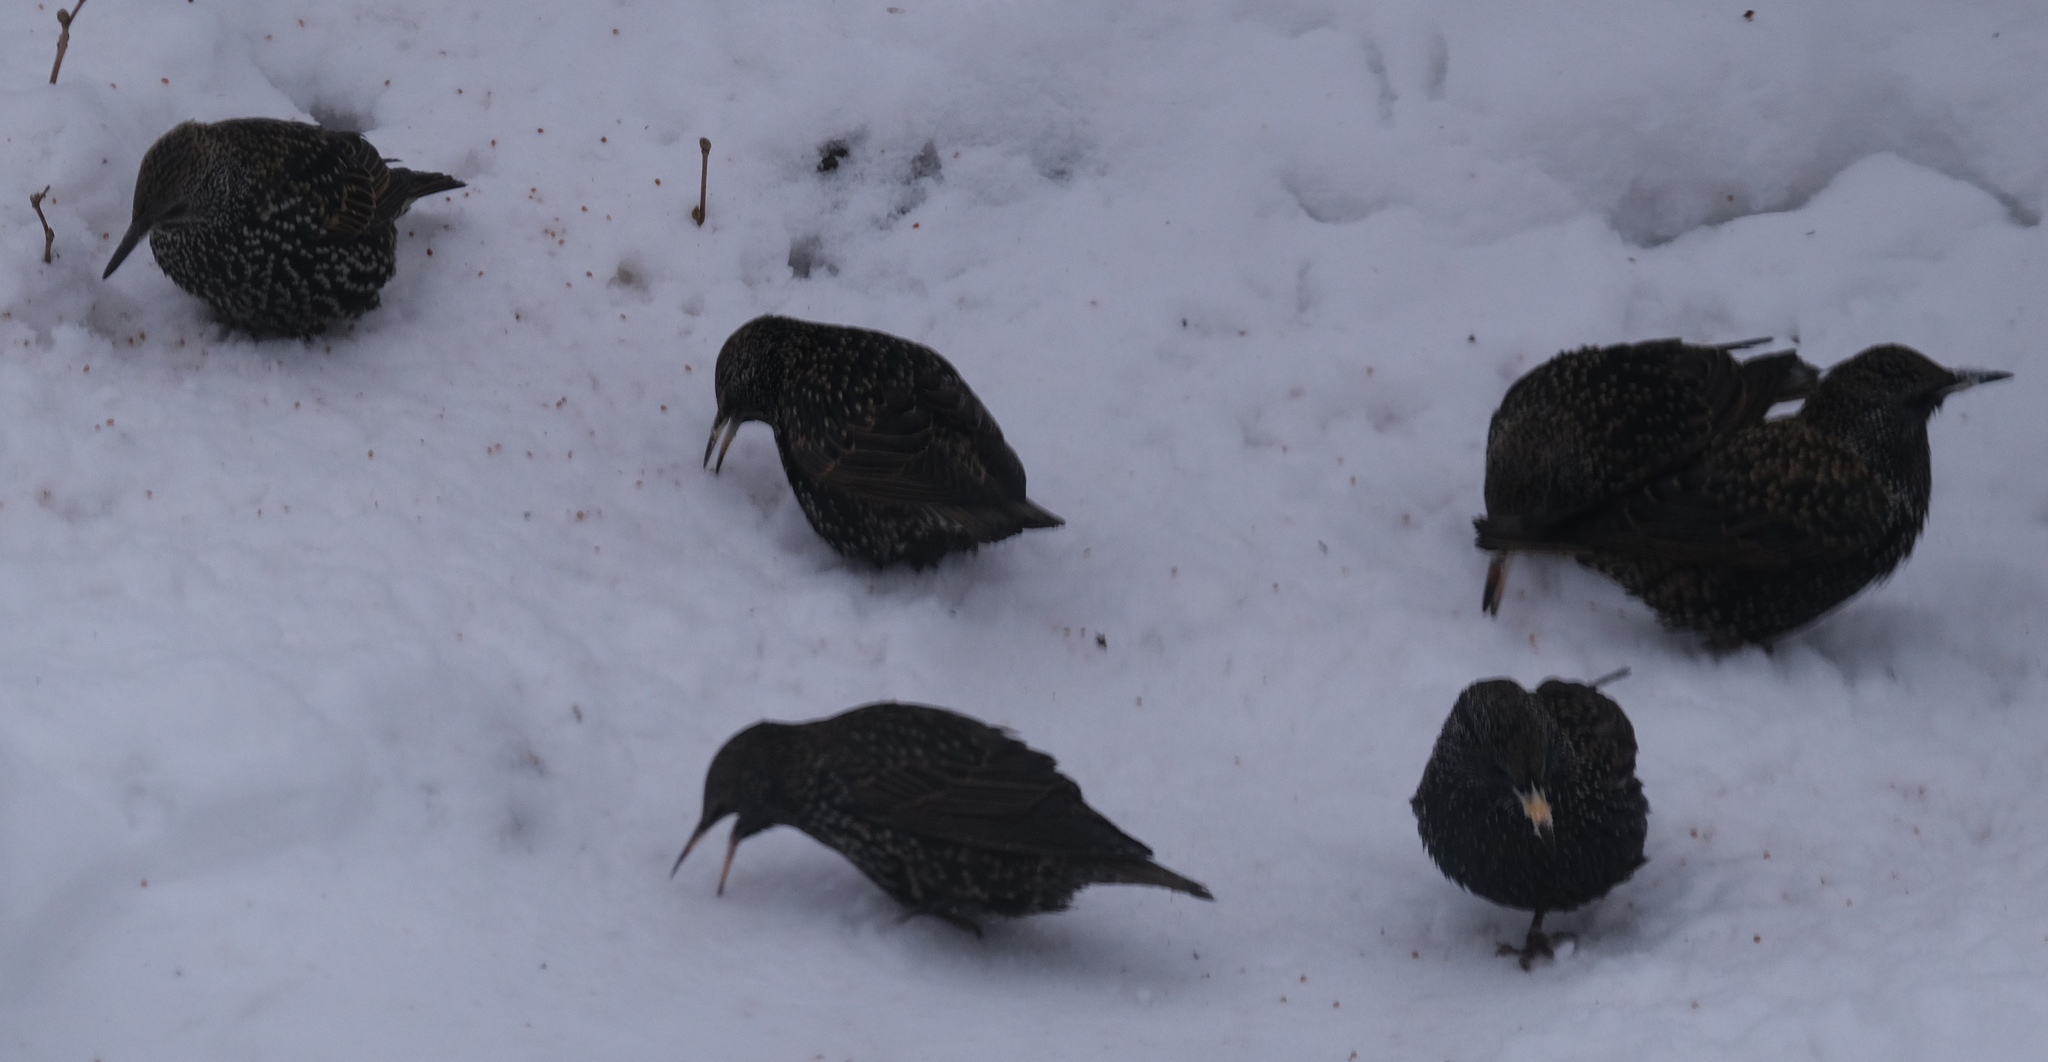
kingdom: Animalia
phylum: Chordata
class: Aves
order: Passeriformes
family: Sturnidae
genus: Sturnus
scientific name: Sturnus vulgaris
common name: Common starling
